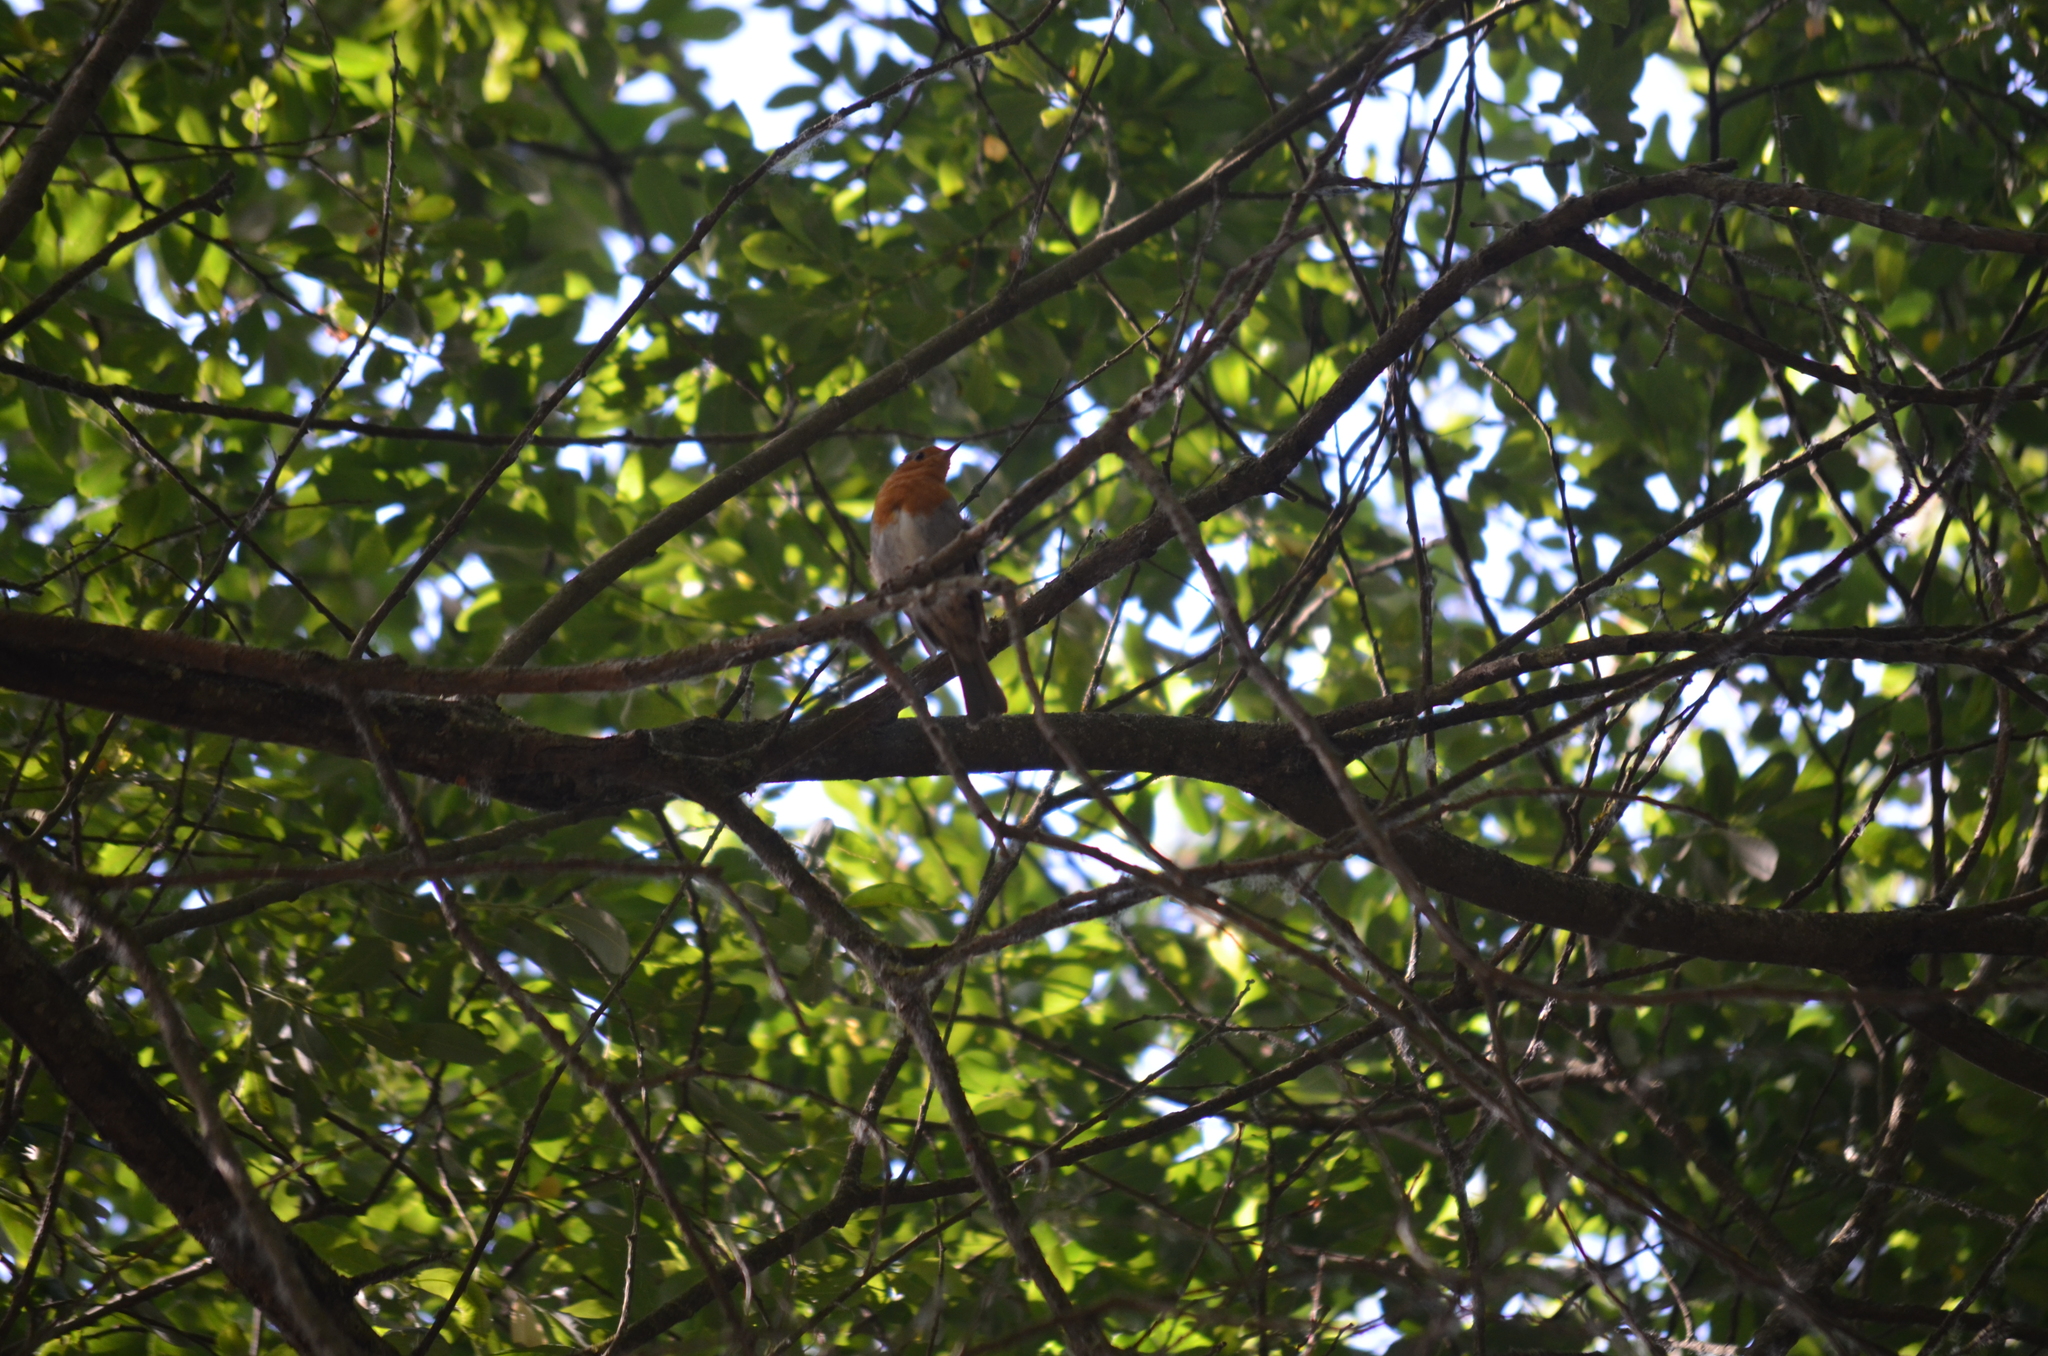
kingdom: Animalia
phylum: Chordata
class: Aves
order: Passeriformes
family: Muscicapidae
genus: Erithacus
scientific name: Erithacus rubecula
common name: European robin
